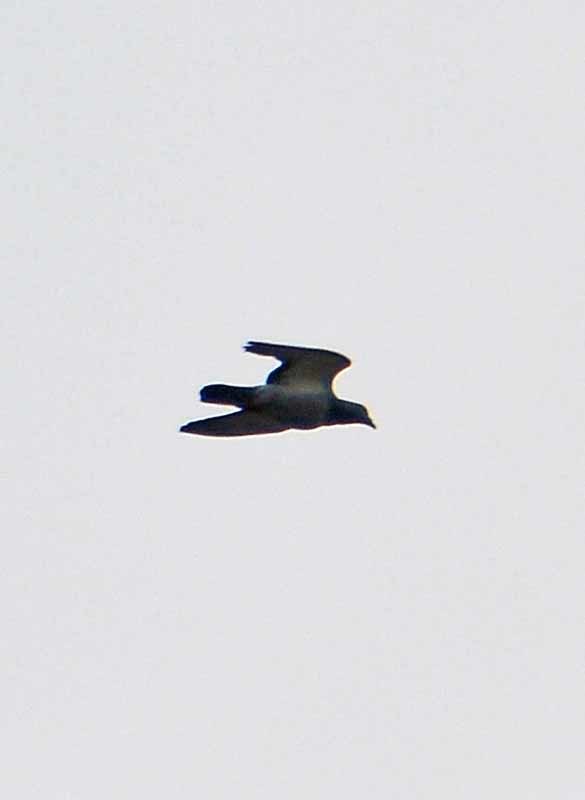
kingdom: Animalia
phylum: Chordata
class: Aves
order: Columbiformes
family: Columbidae
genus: Columba
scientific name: Columba livia
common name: Rock pigeon
